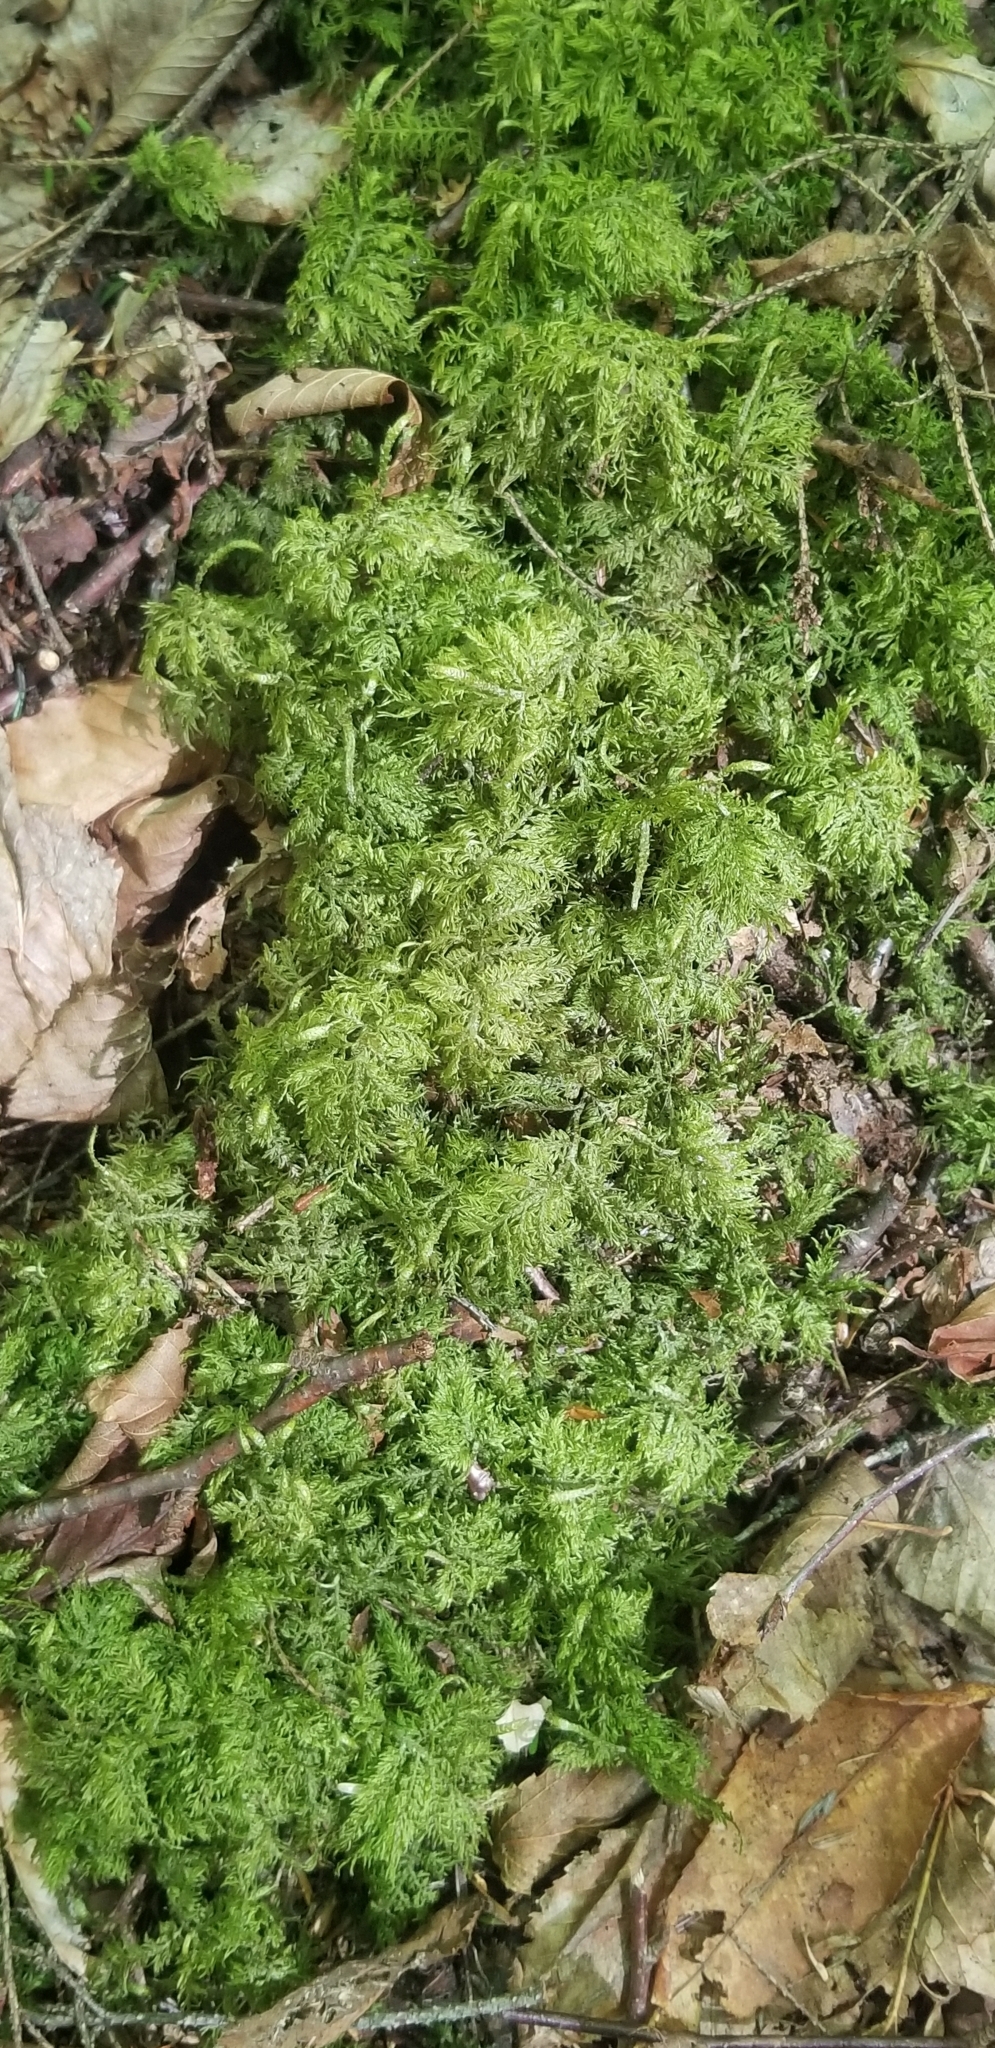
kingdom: Plantae
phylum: Bryophyta
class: Bryopsida
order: Hypnales
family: Hylocomiaceae
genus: Hylocomium
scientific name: Hylocomium splendens
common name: Stairstep moss
